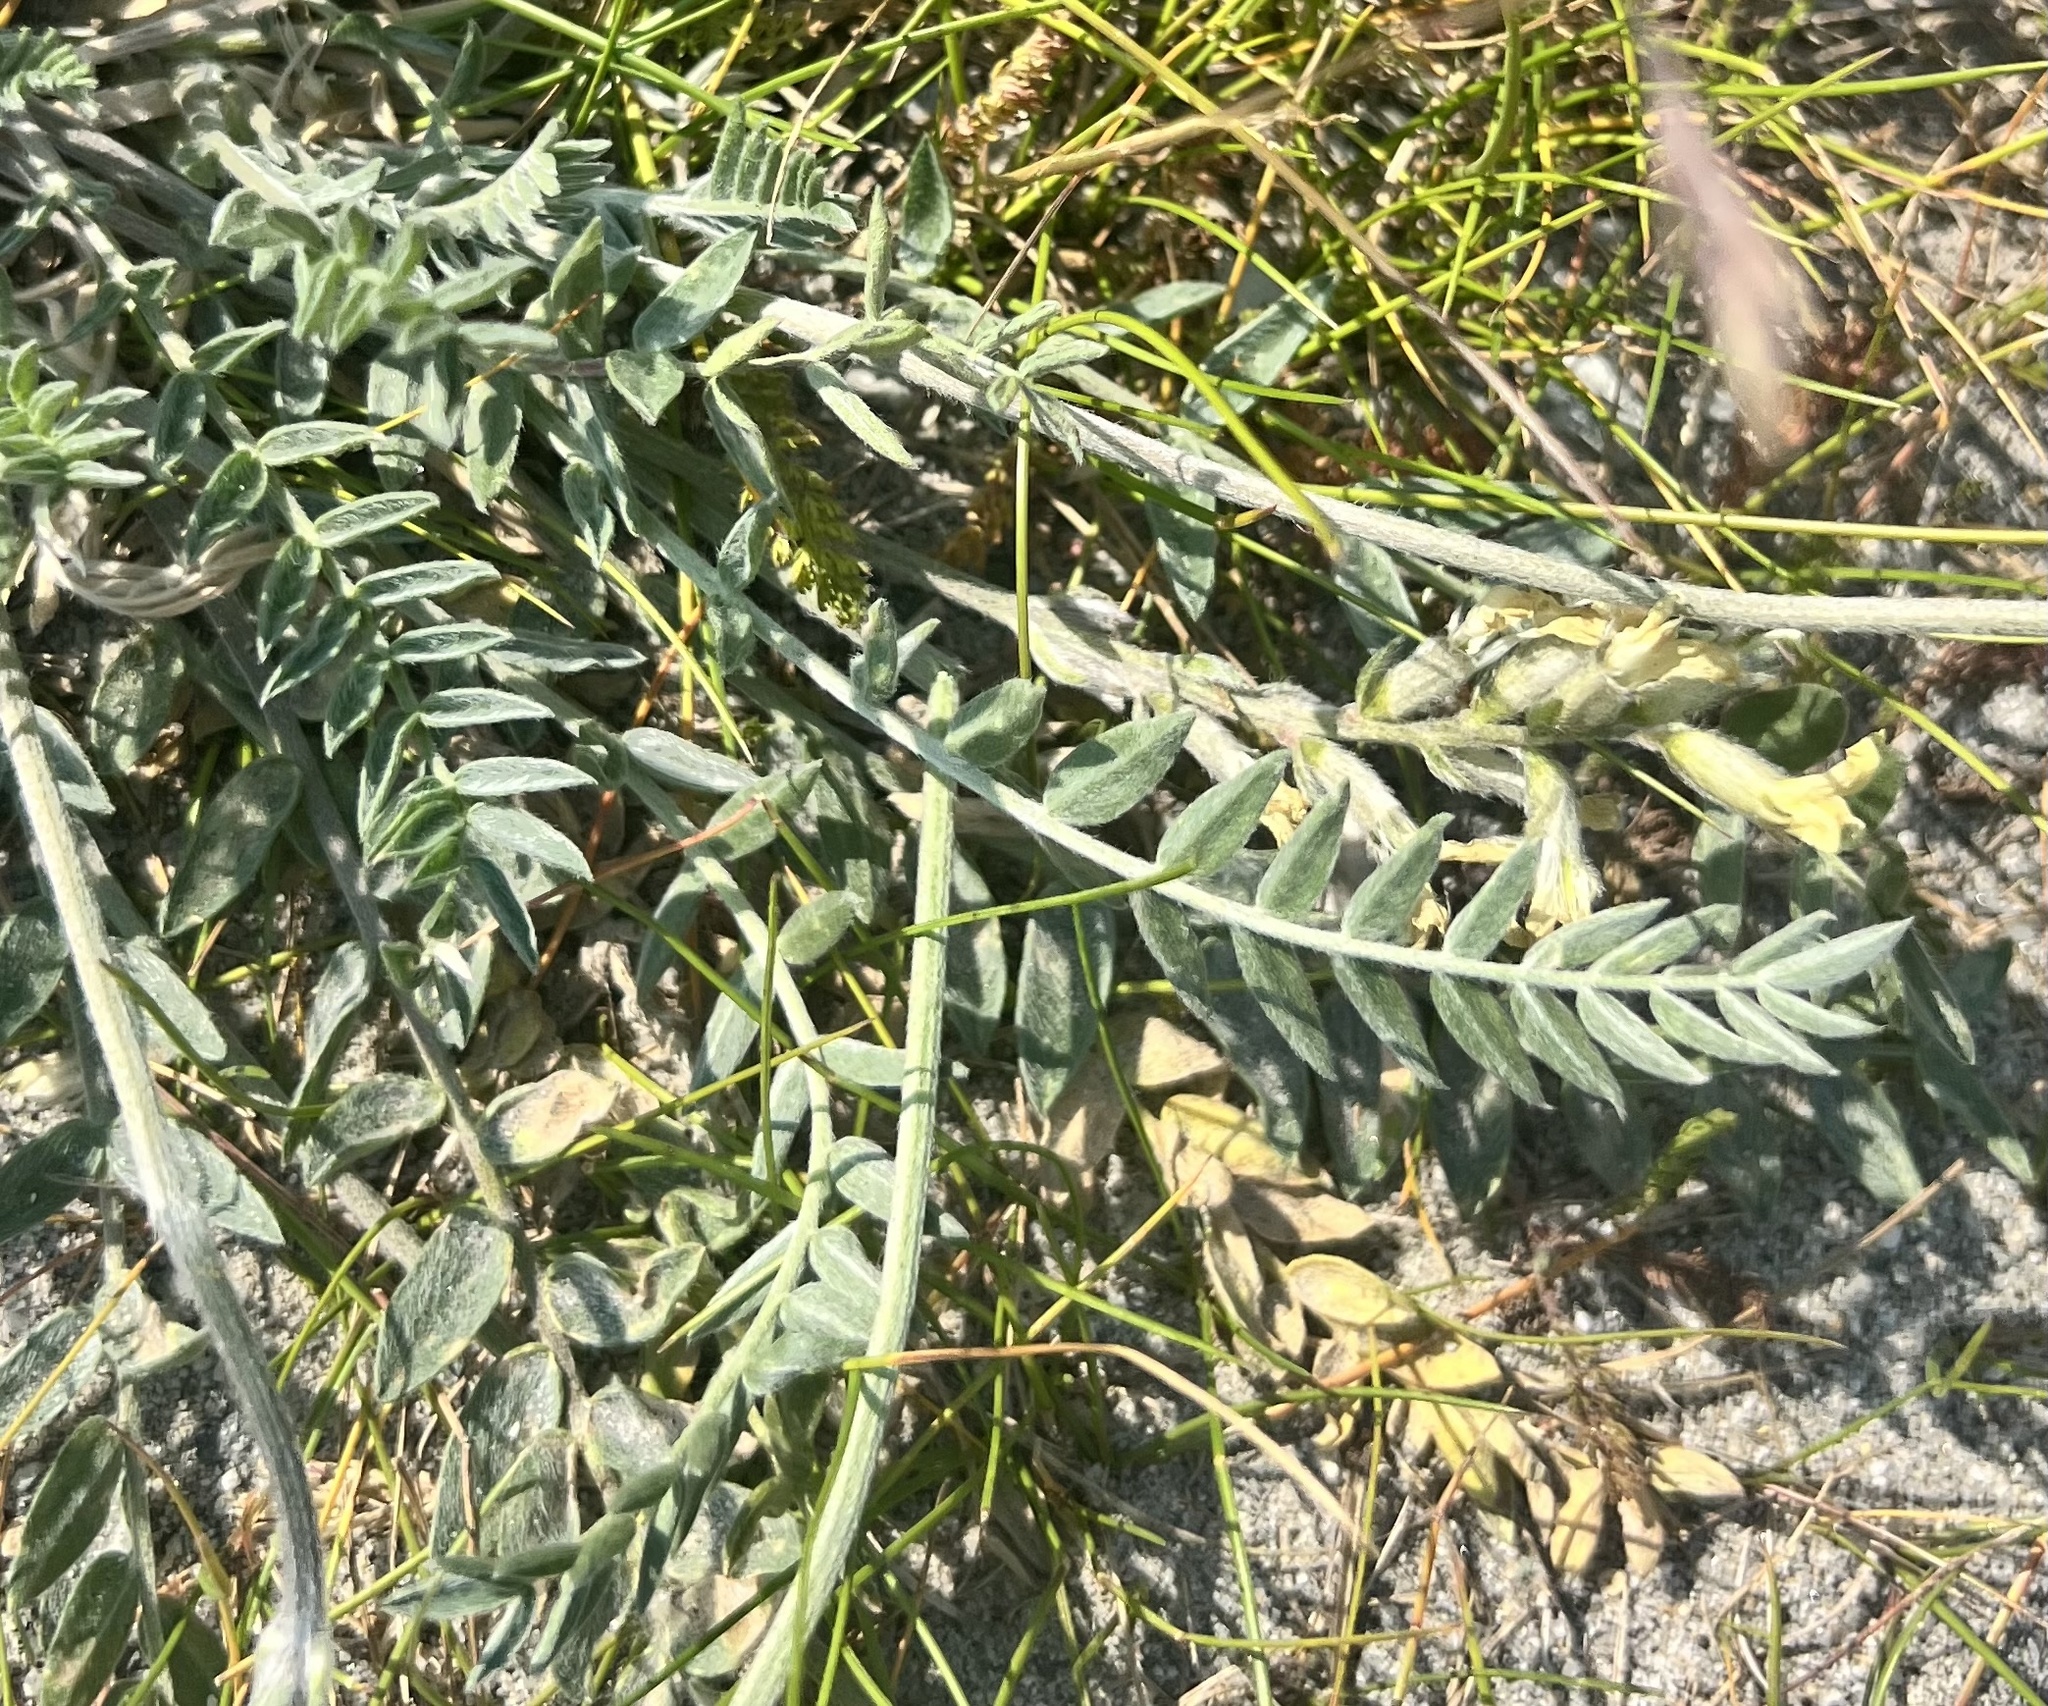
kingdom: Plantae
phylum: Tracheophyta
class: Magnoliopsida
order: Fabales
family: Fabaceae
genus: Oxytropis
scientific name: Oxytropis campestris
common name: Field locoweed
